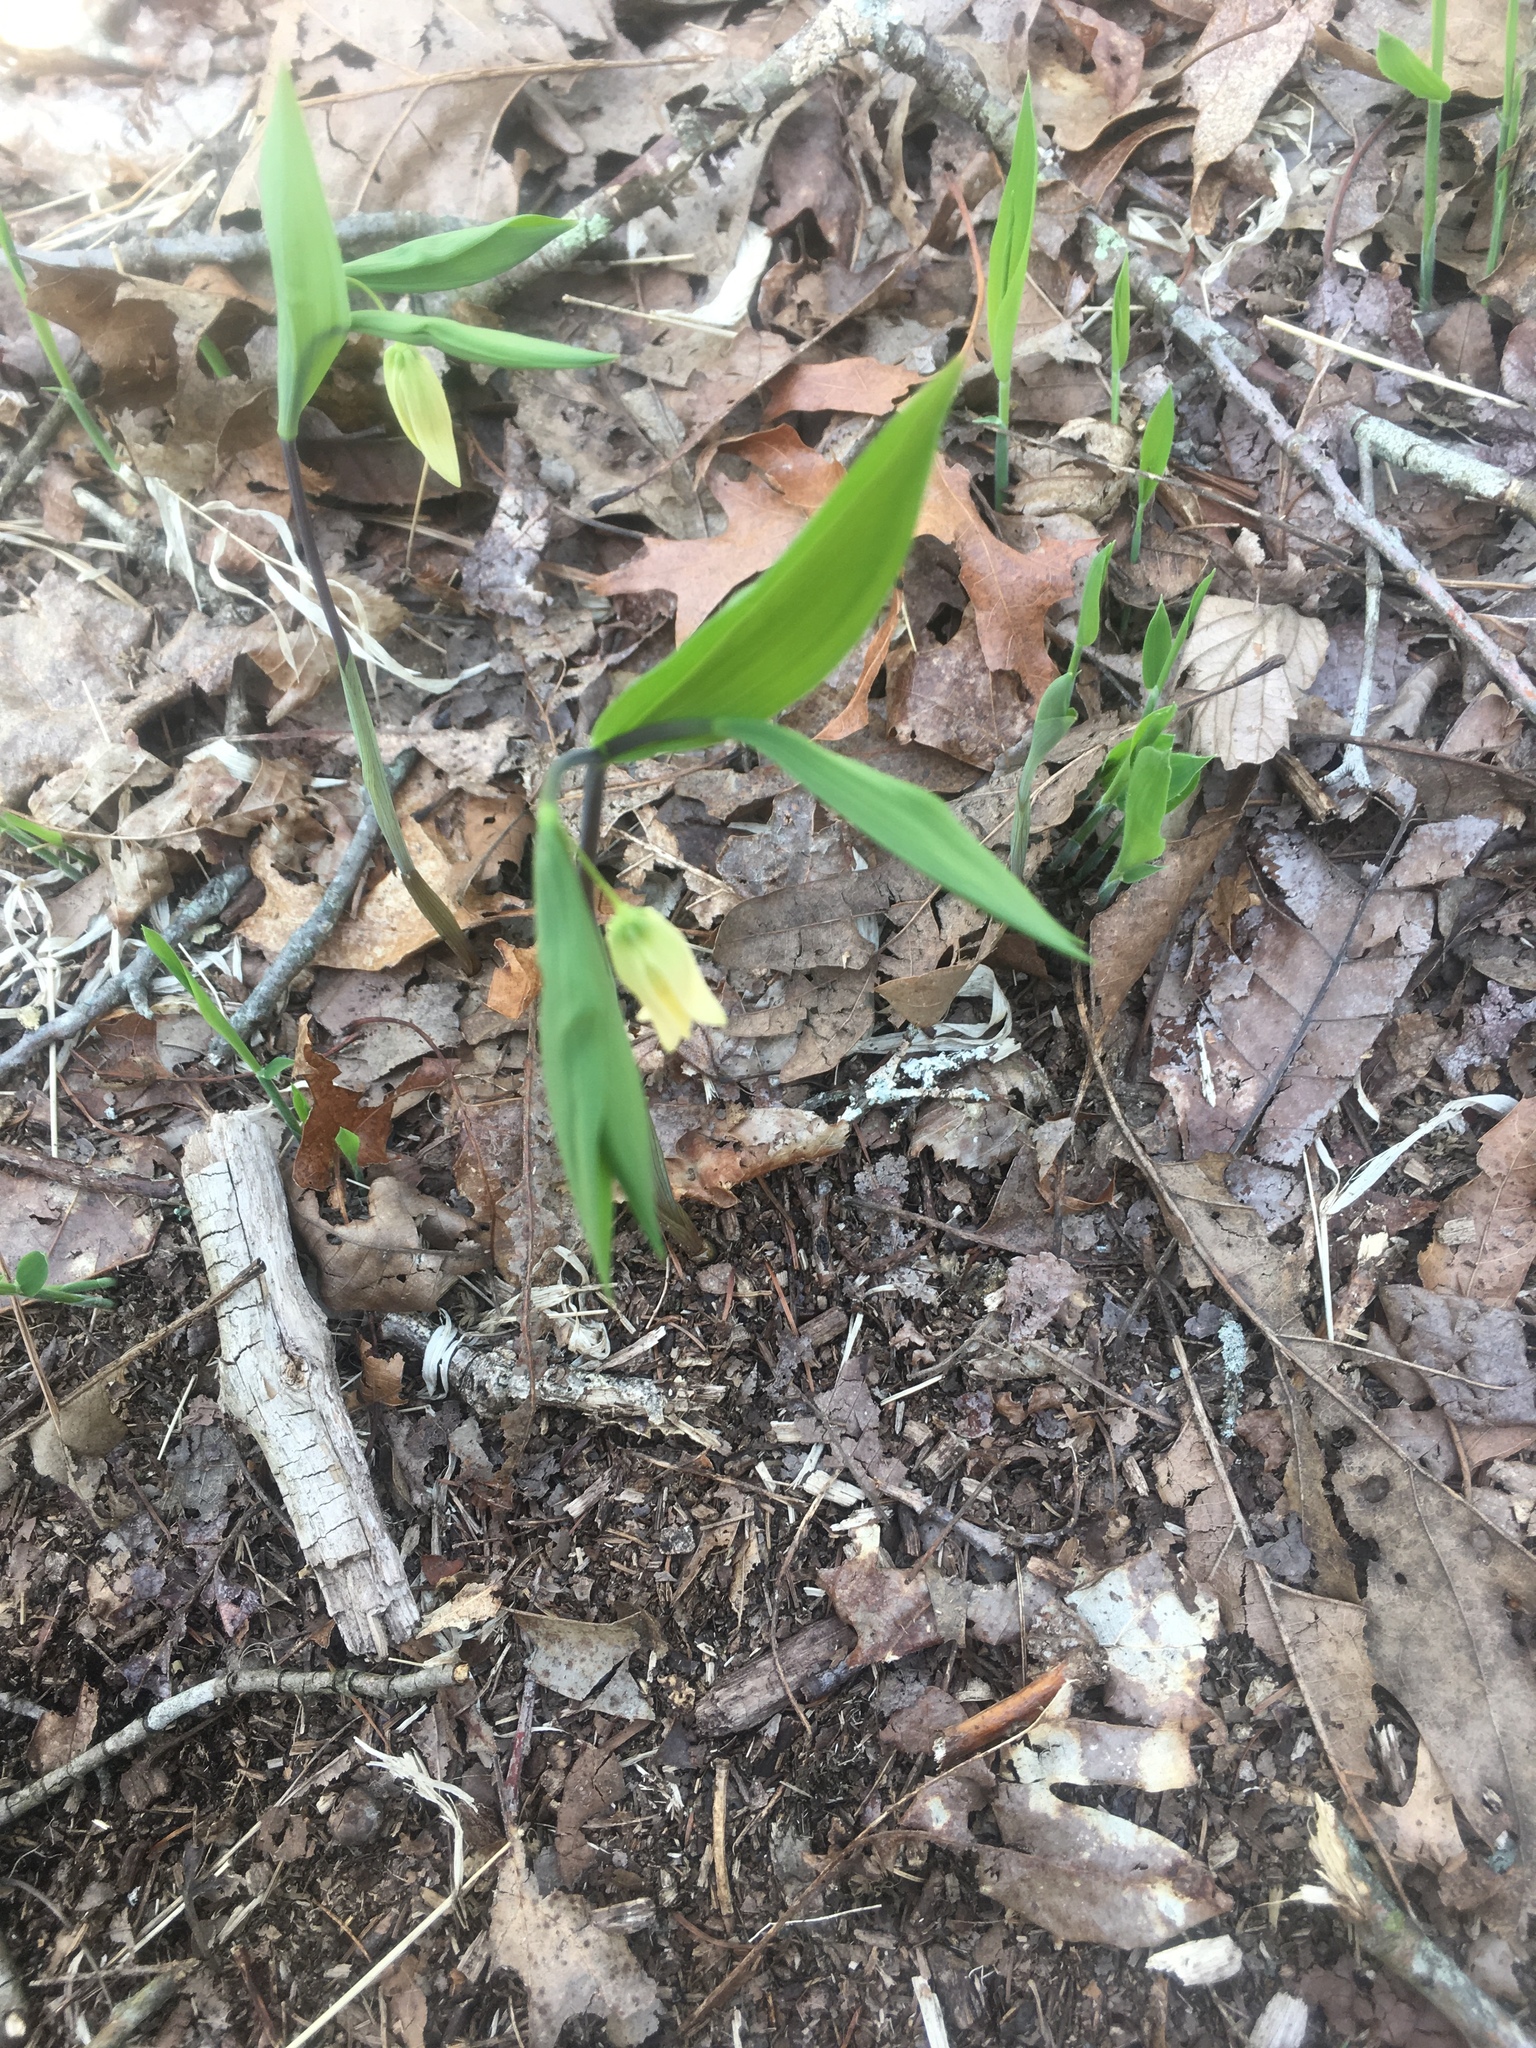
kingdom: Plantae
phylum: Tracheophyta
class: Liliopsida
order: Liliales
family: Colchicaceae
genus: Uvularia
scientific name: Uvularia sessilifolia
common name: Straw-lily
